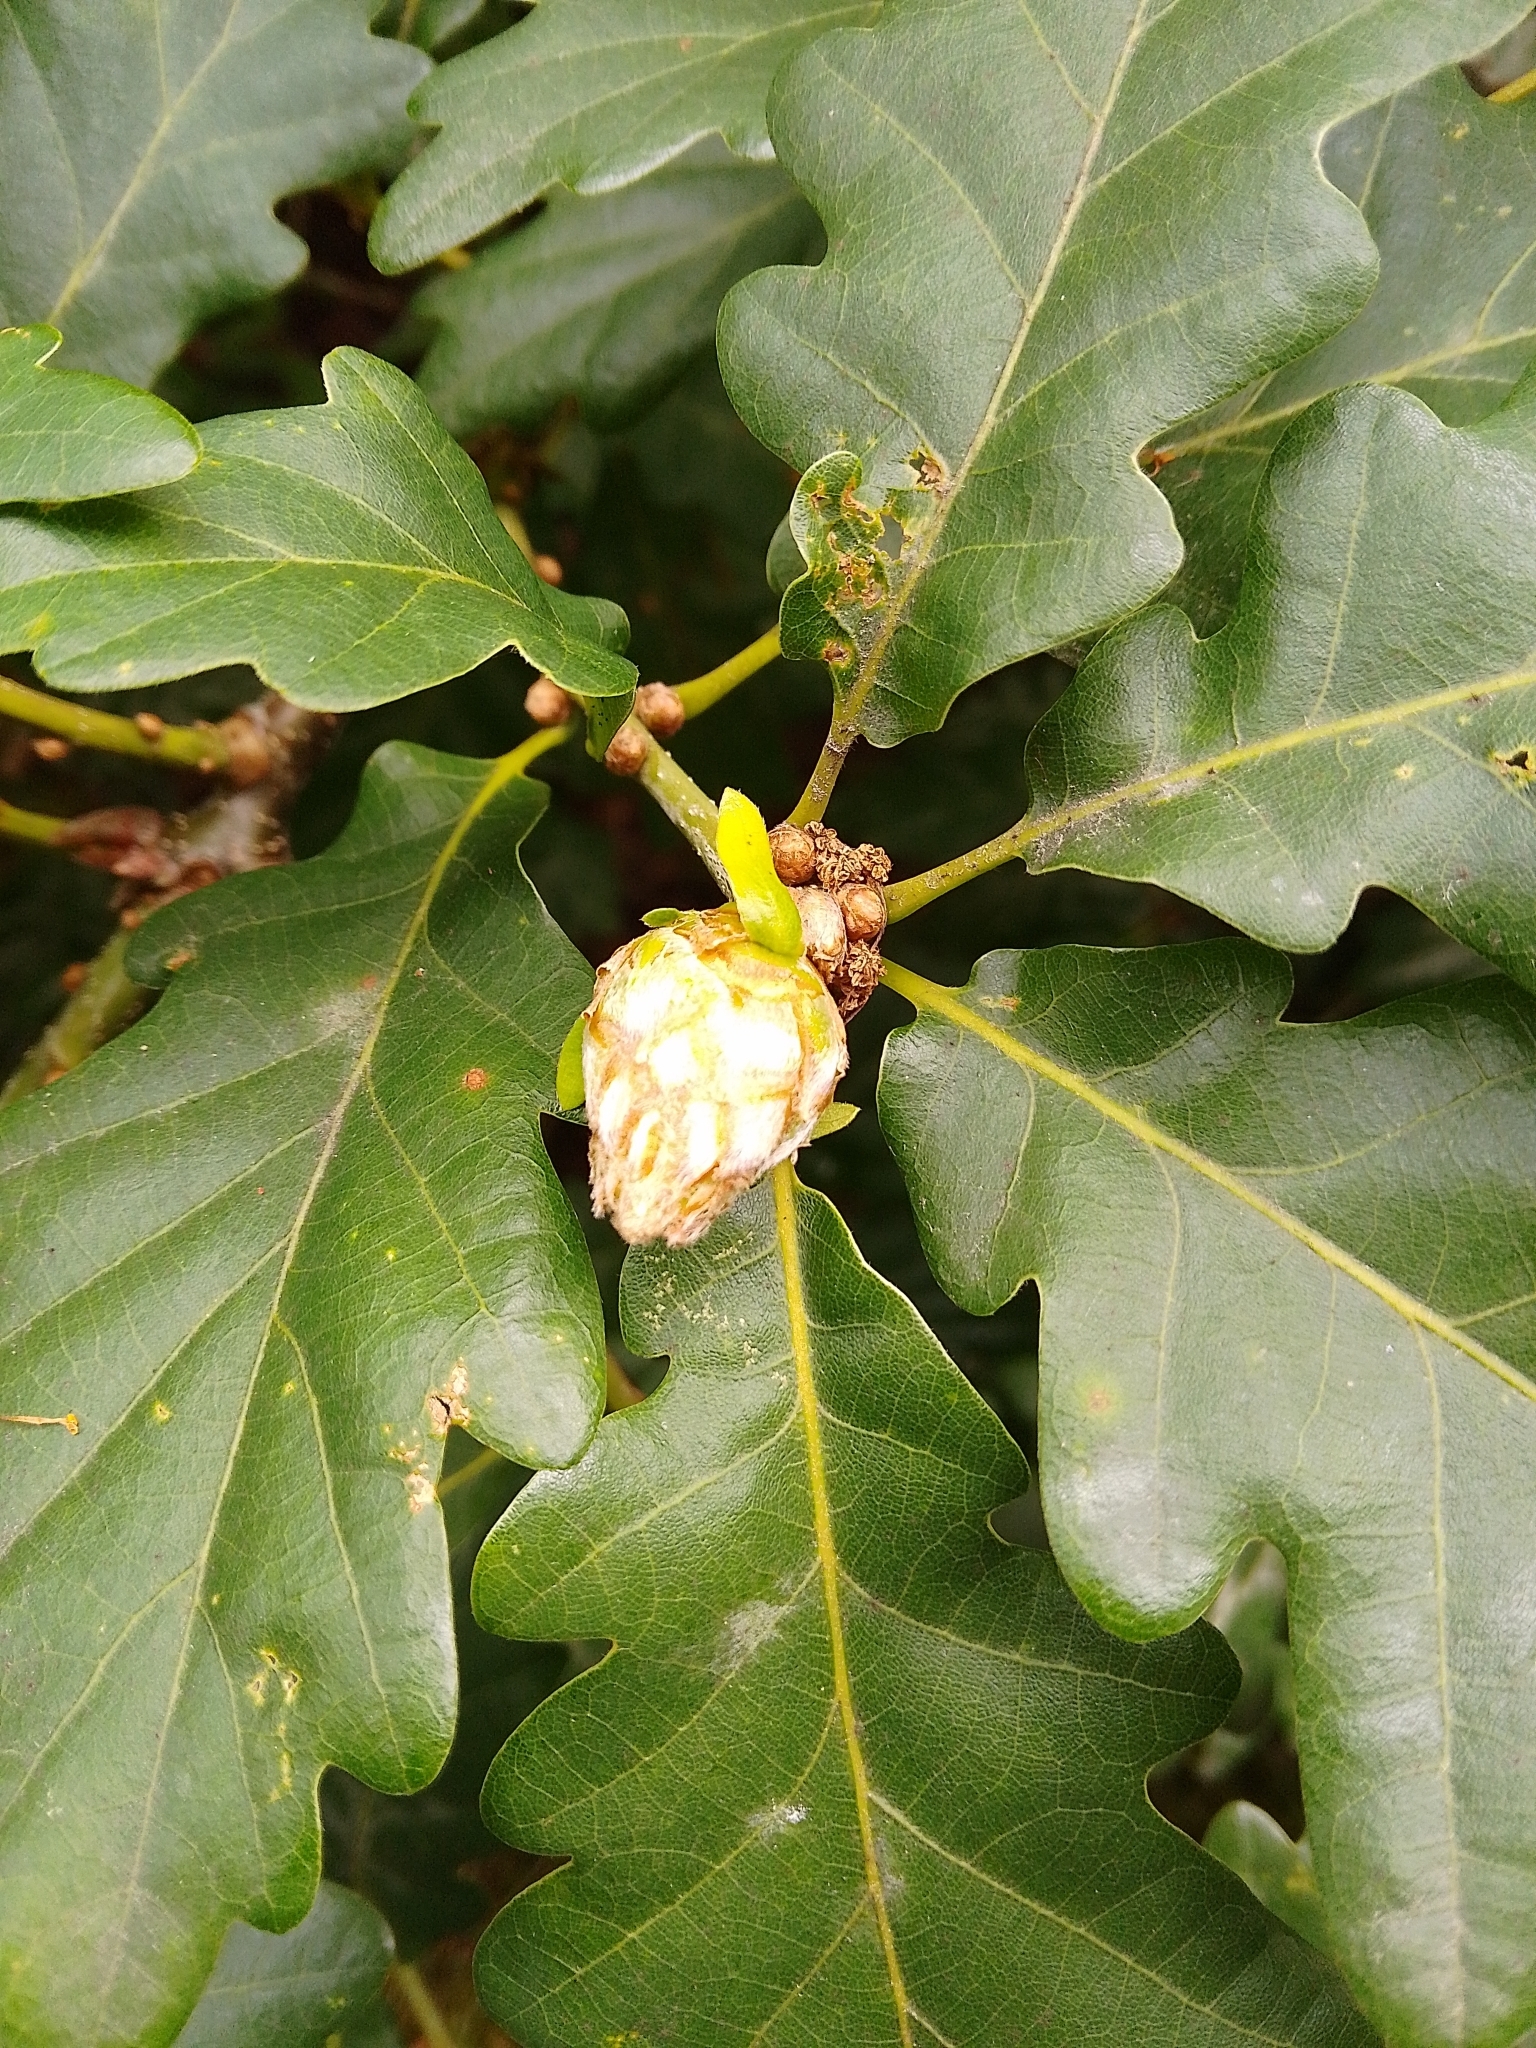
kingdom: Animalia
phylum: Arthropoda
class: Insecta
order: Hymenoptera
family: Cynipidae
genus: Andricus
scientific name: Andricus foecundatrix
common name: Artichoke gall
